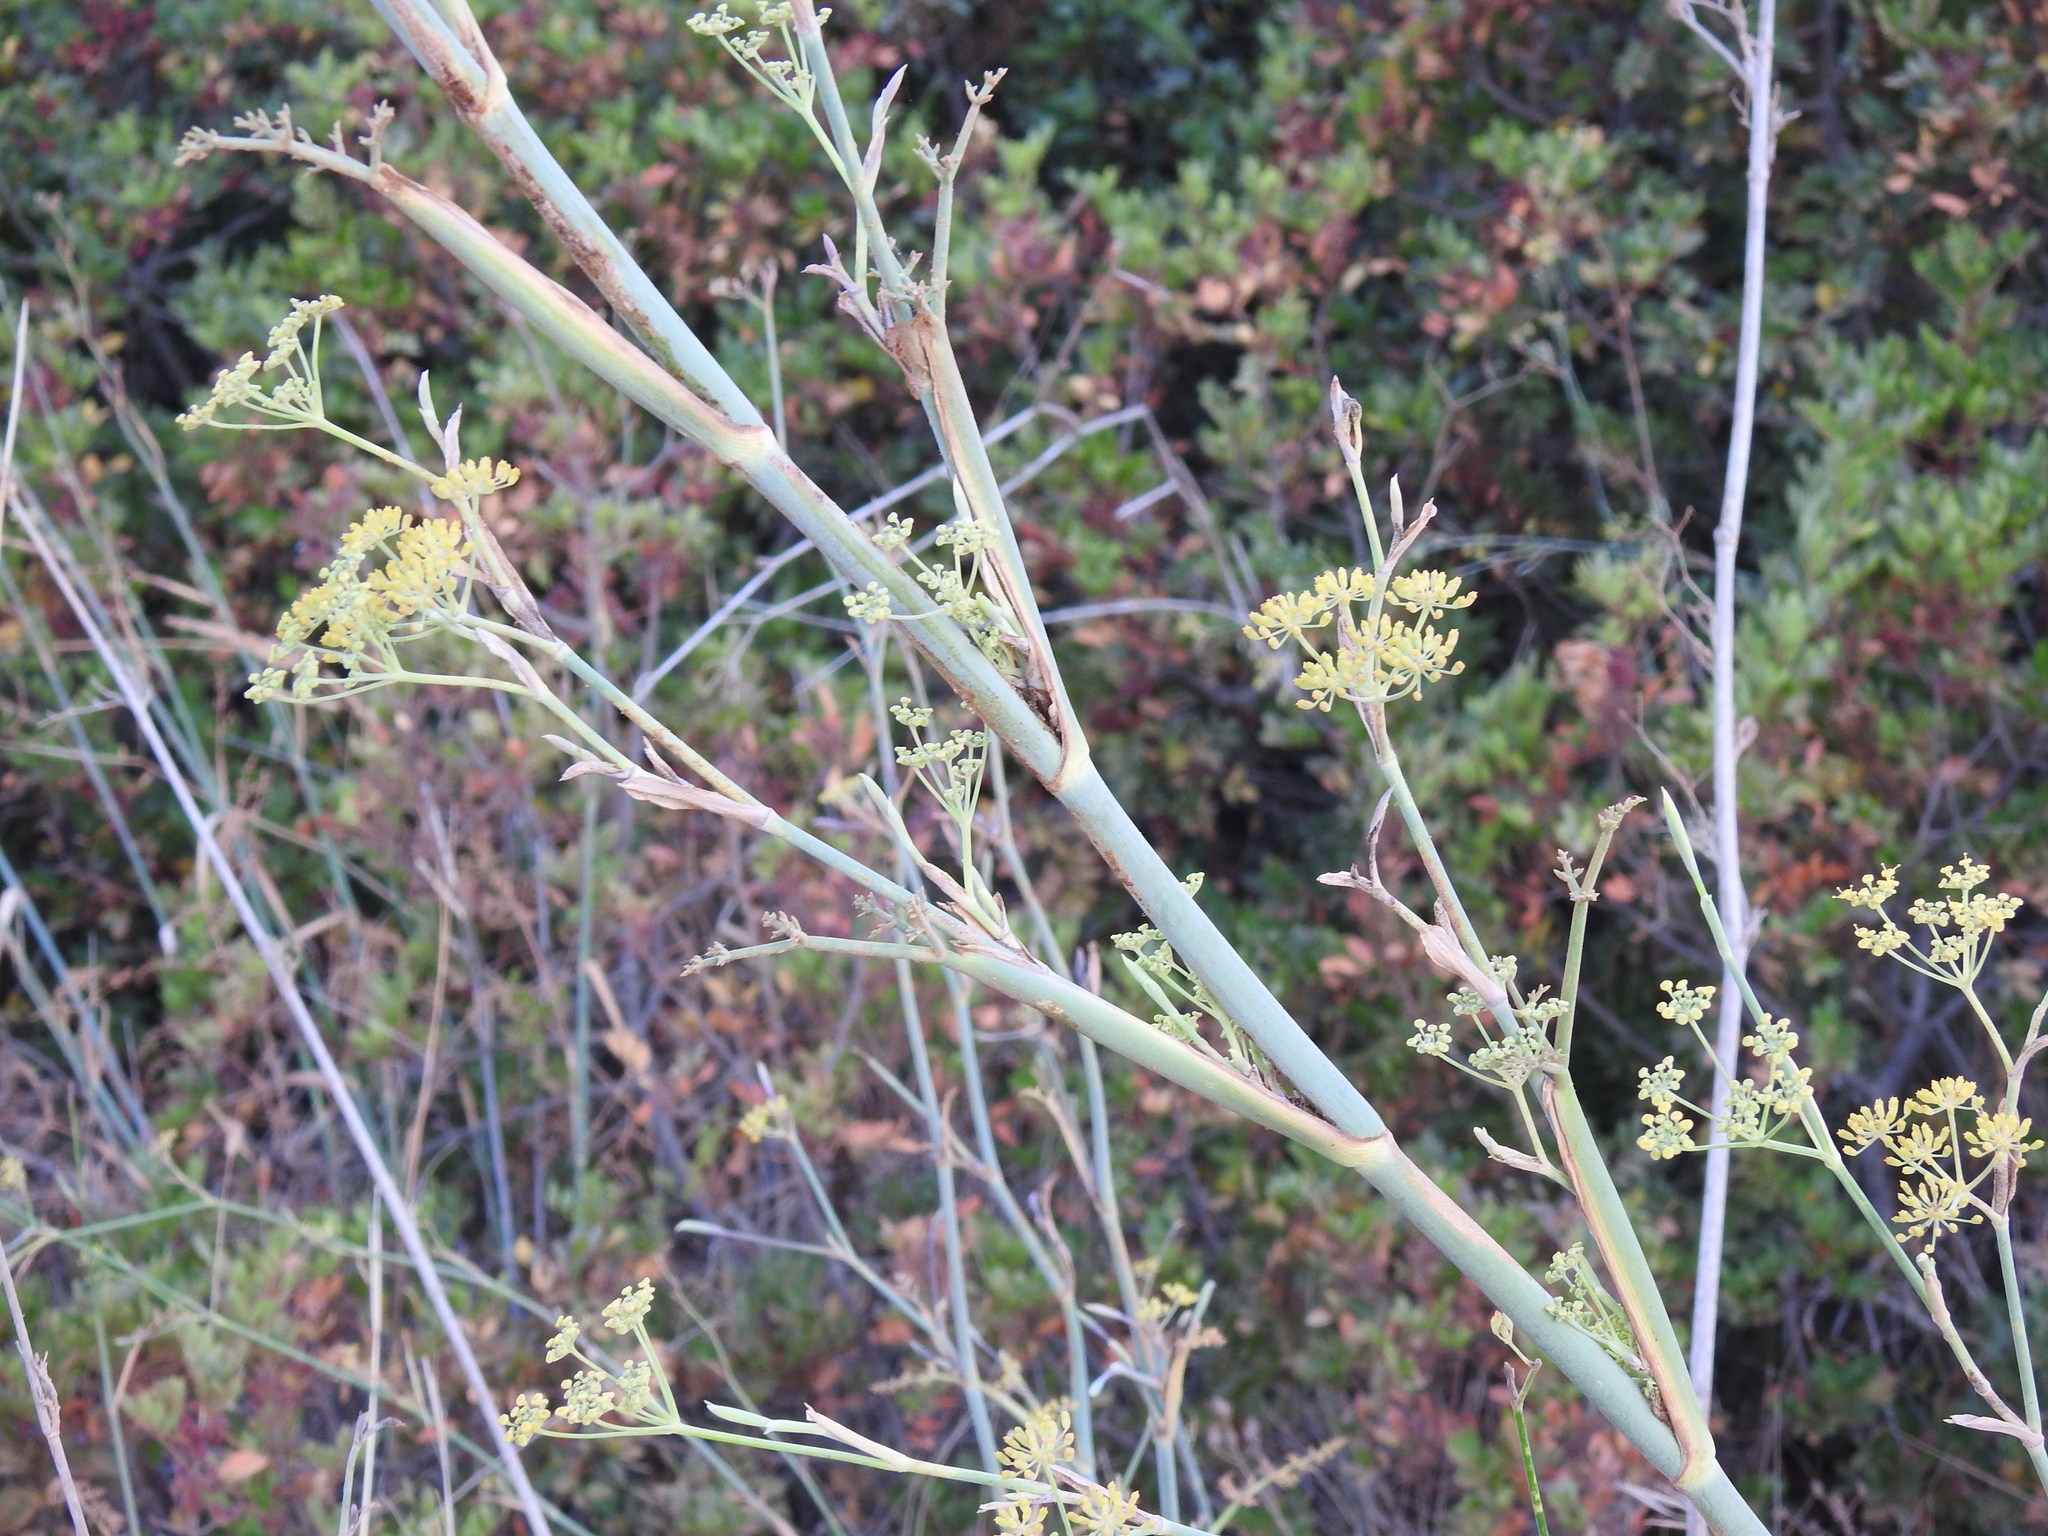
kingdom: Plantae
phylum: Tracheophyta
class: Magnoliopsida
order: Apiales
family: Apiaceae
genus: Foeniculum
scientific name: Foeniculum vulgare
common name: Fennel
